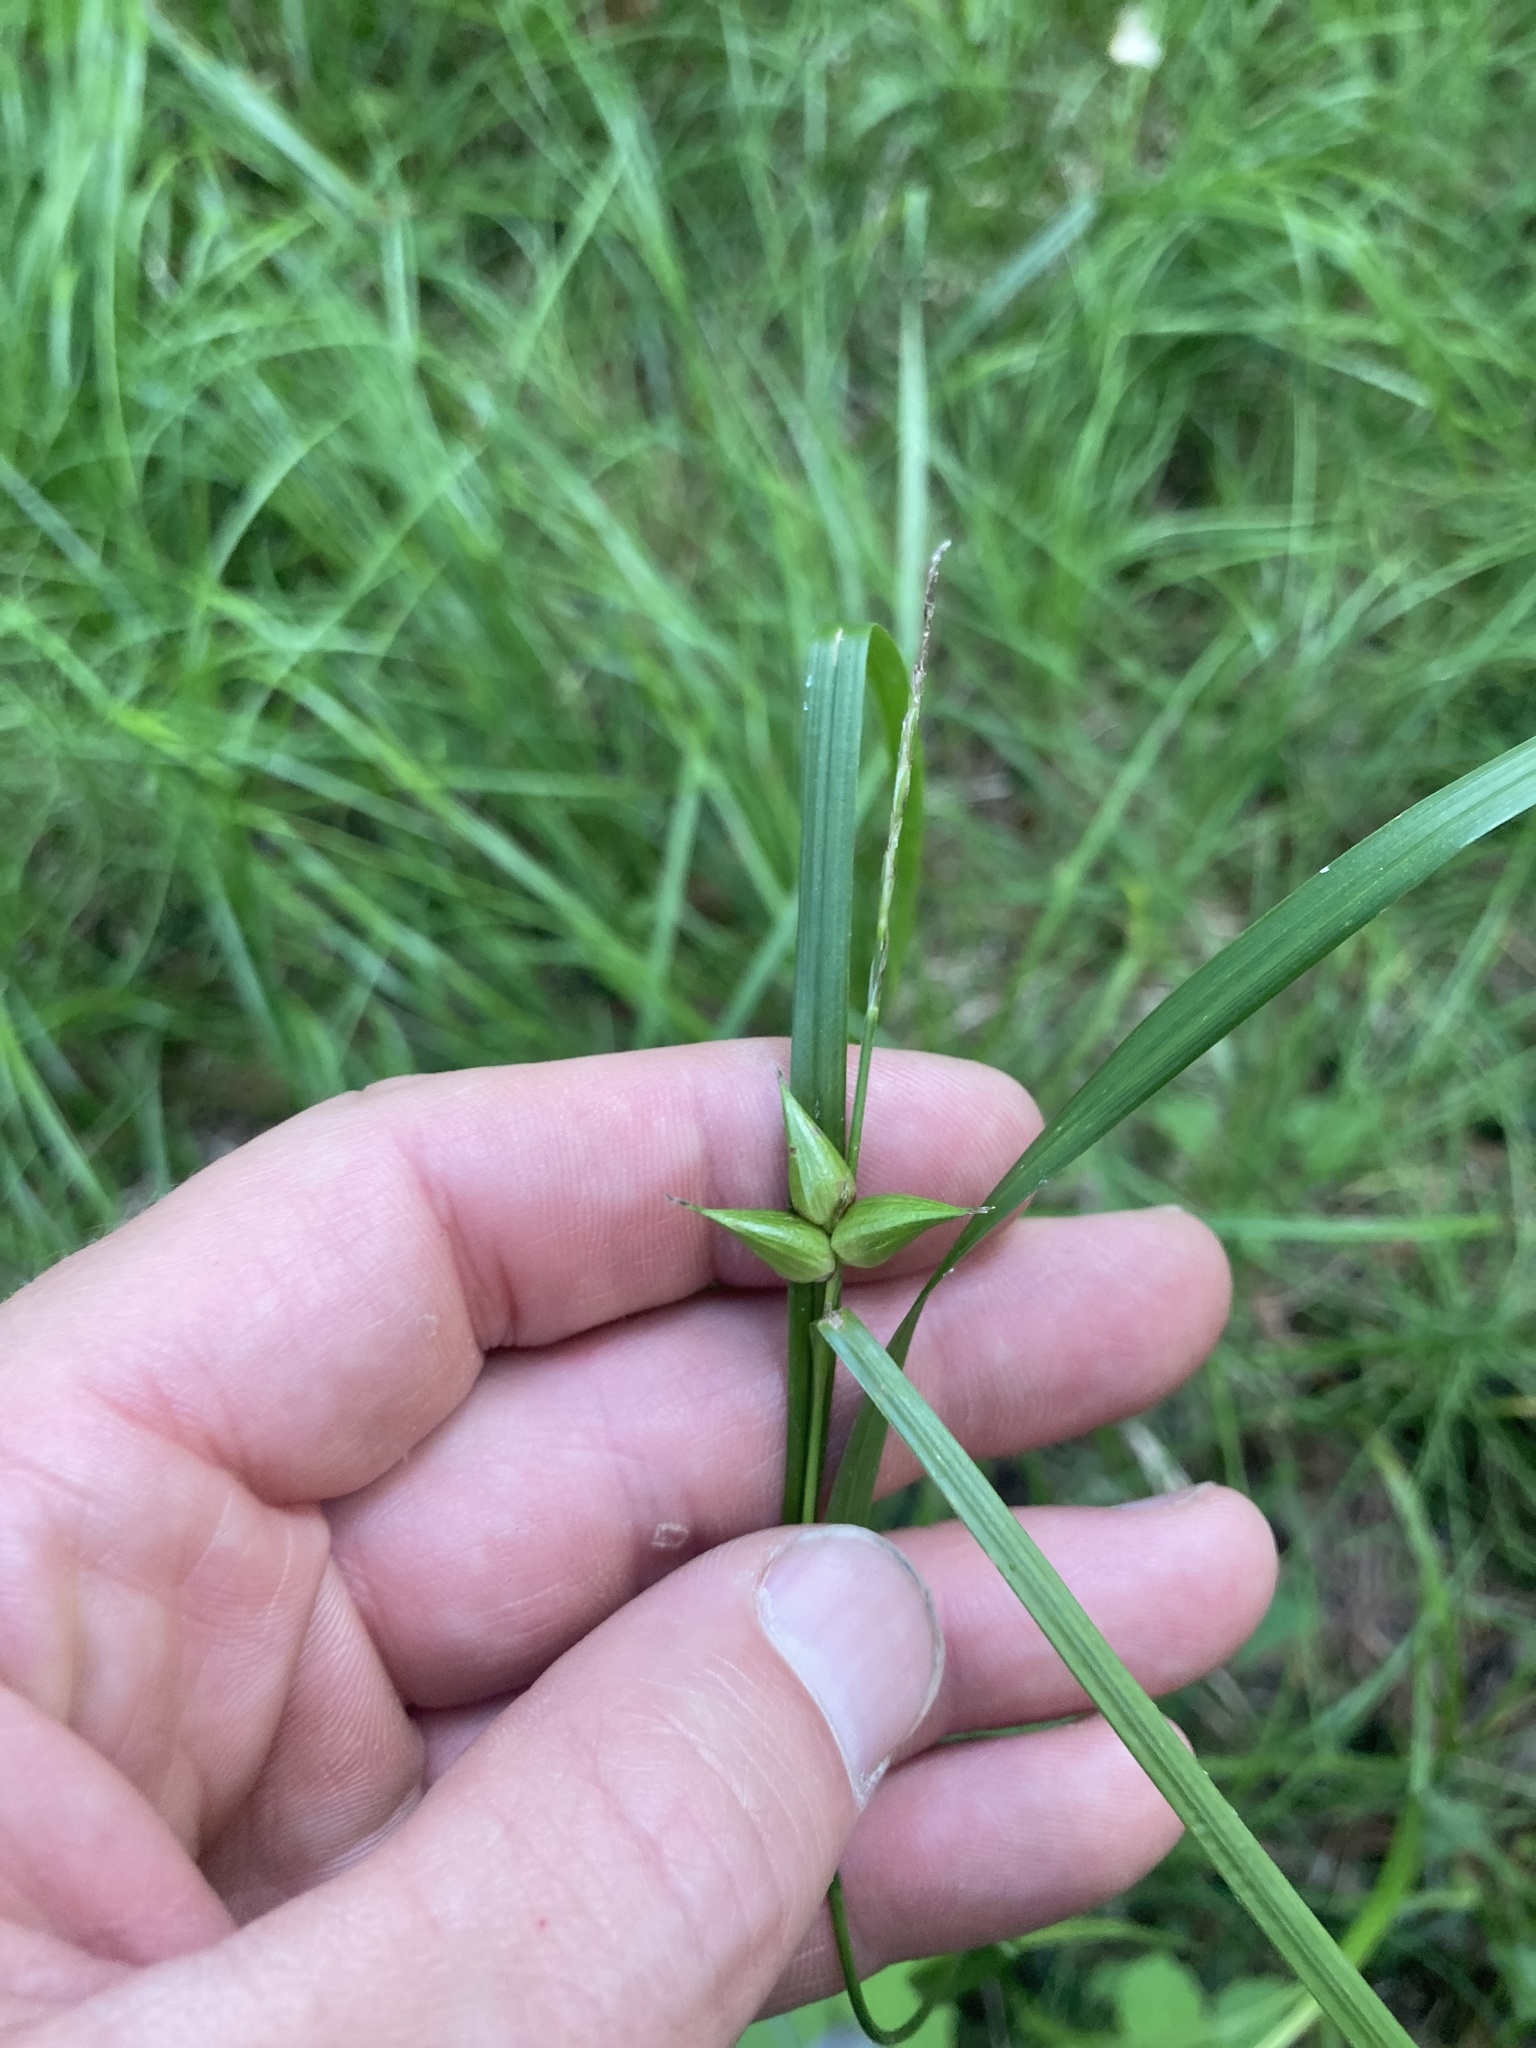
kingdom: Plantae
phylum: Tracheophyta
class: Liliopsida
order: Poales
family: Cyperaceae
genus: Carex
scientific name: Carex intumescens
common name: Greater bladder sedge
